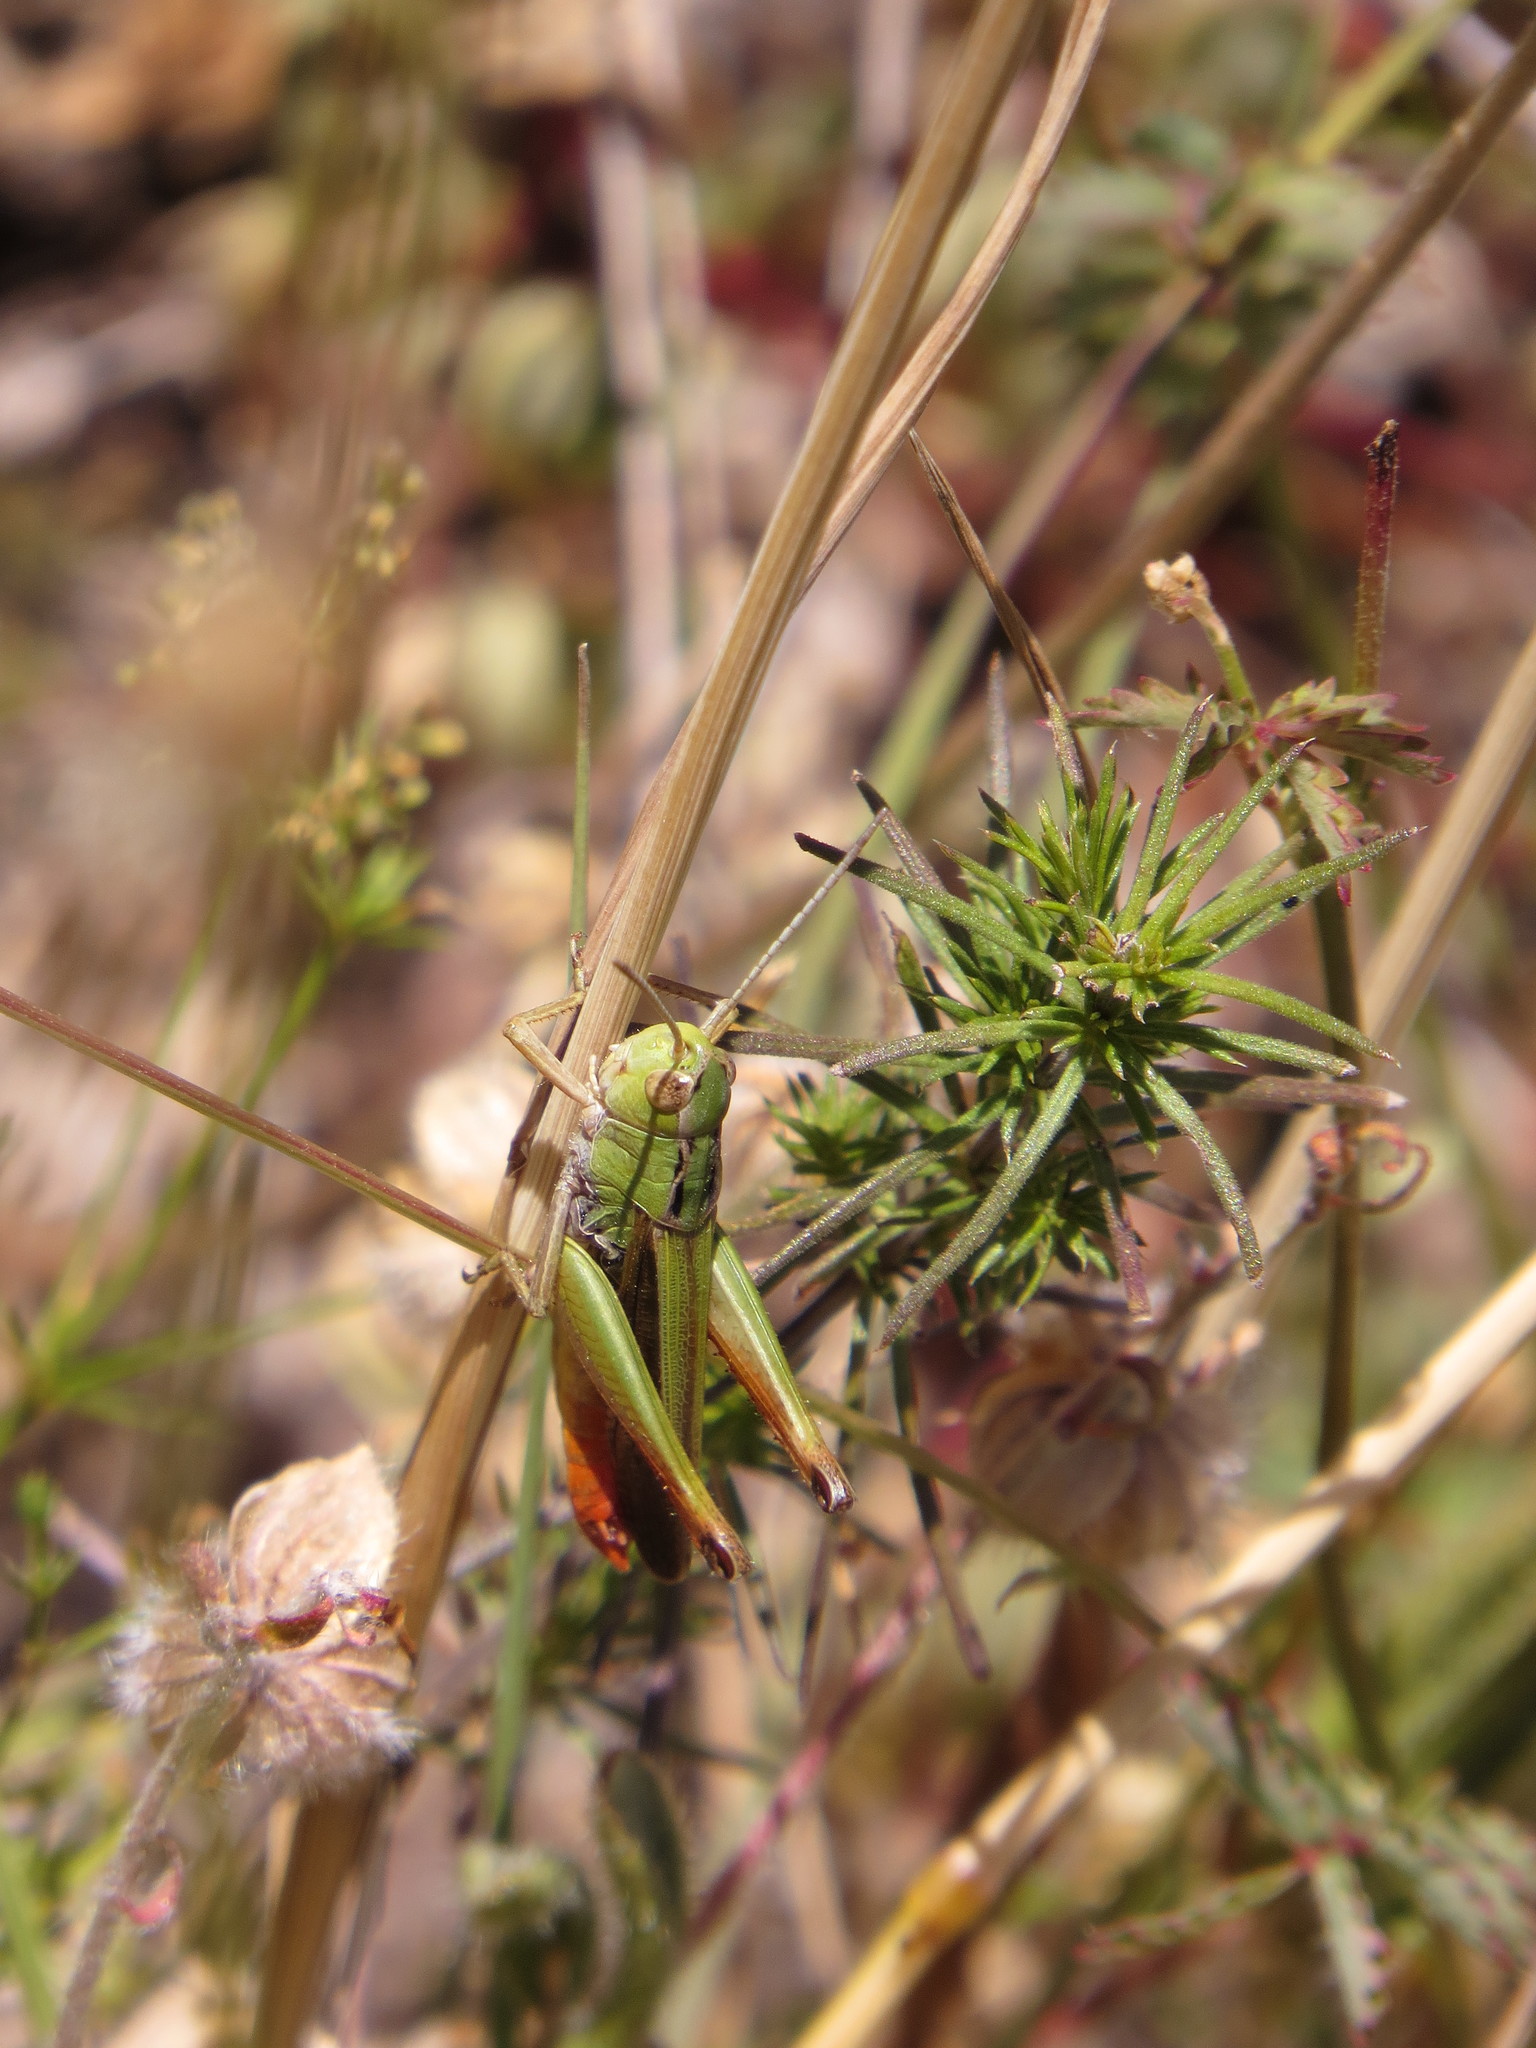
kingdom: Animalia
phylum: Arthropoda
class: Insecta
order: Orthoptera
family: Acrididae
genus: Stenobothrus
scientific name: Stenobothrus lineatus
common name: Stripe-winged grasshopper
